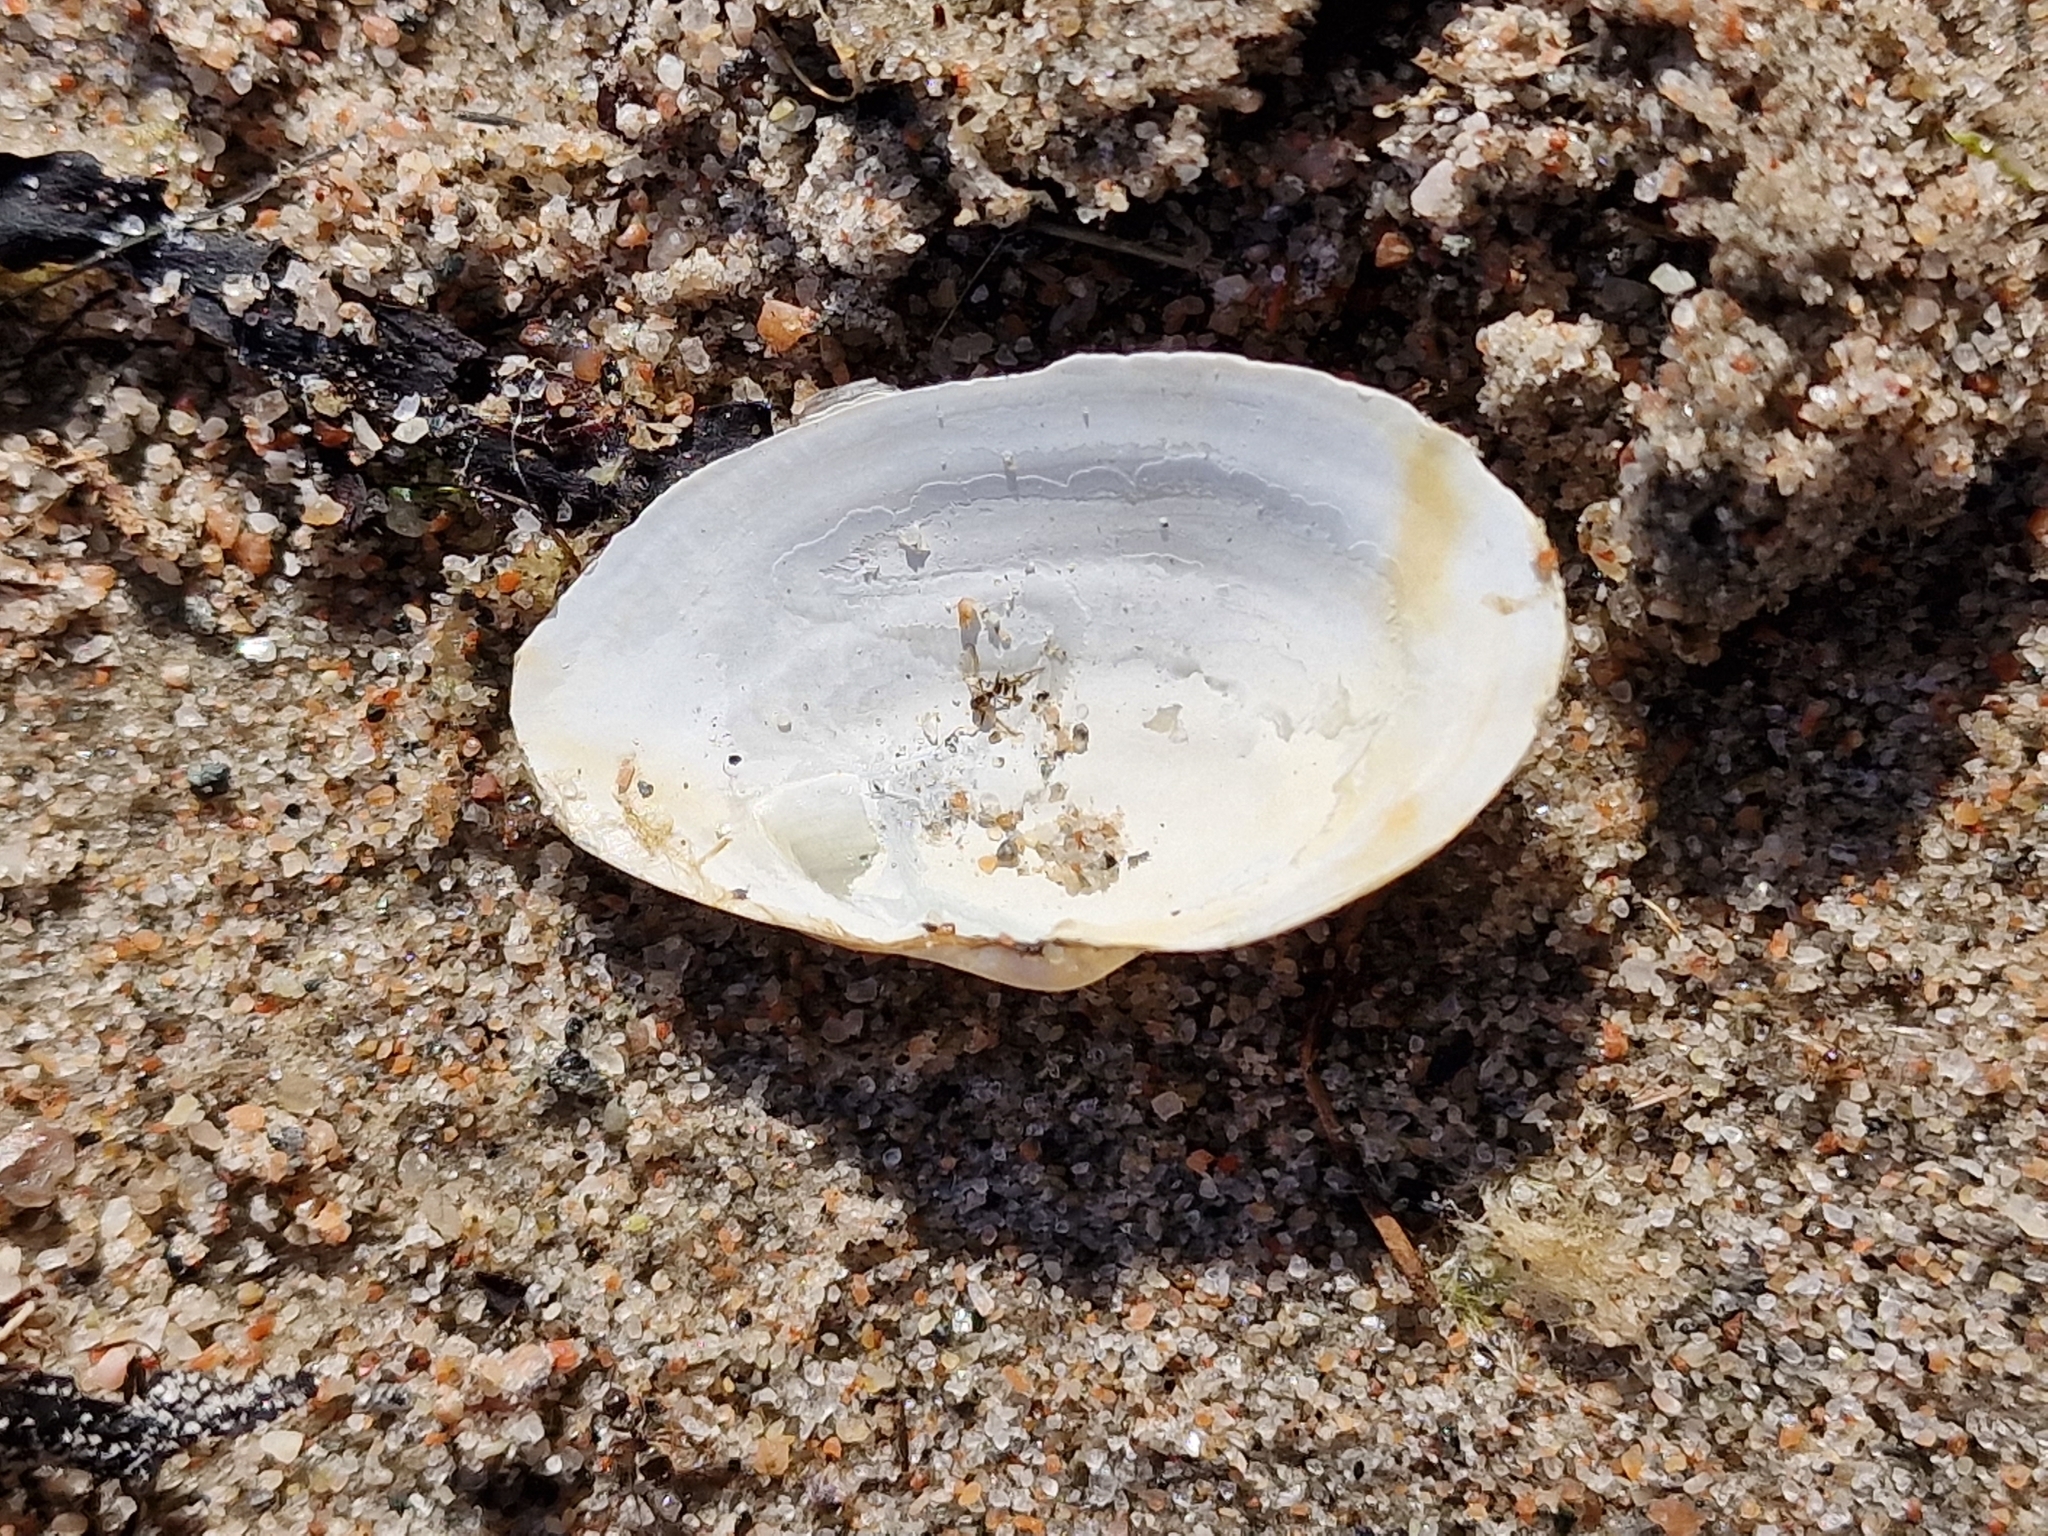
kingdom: Animalia
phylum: Mollusca
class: Bivalvia
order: Myida
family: Myidae
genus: Mya
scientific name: Mya arenaria
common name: Soft-shelled clam
